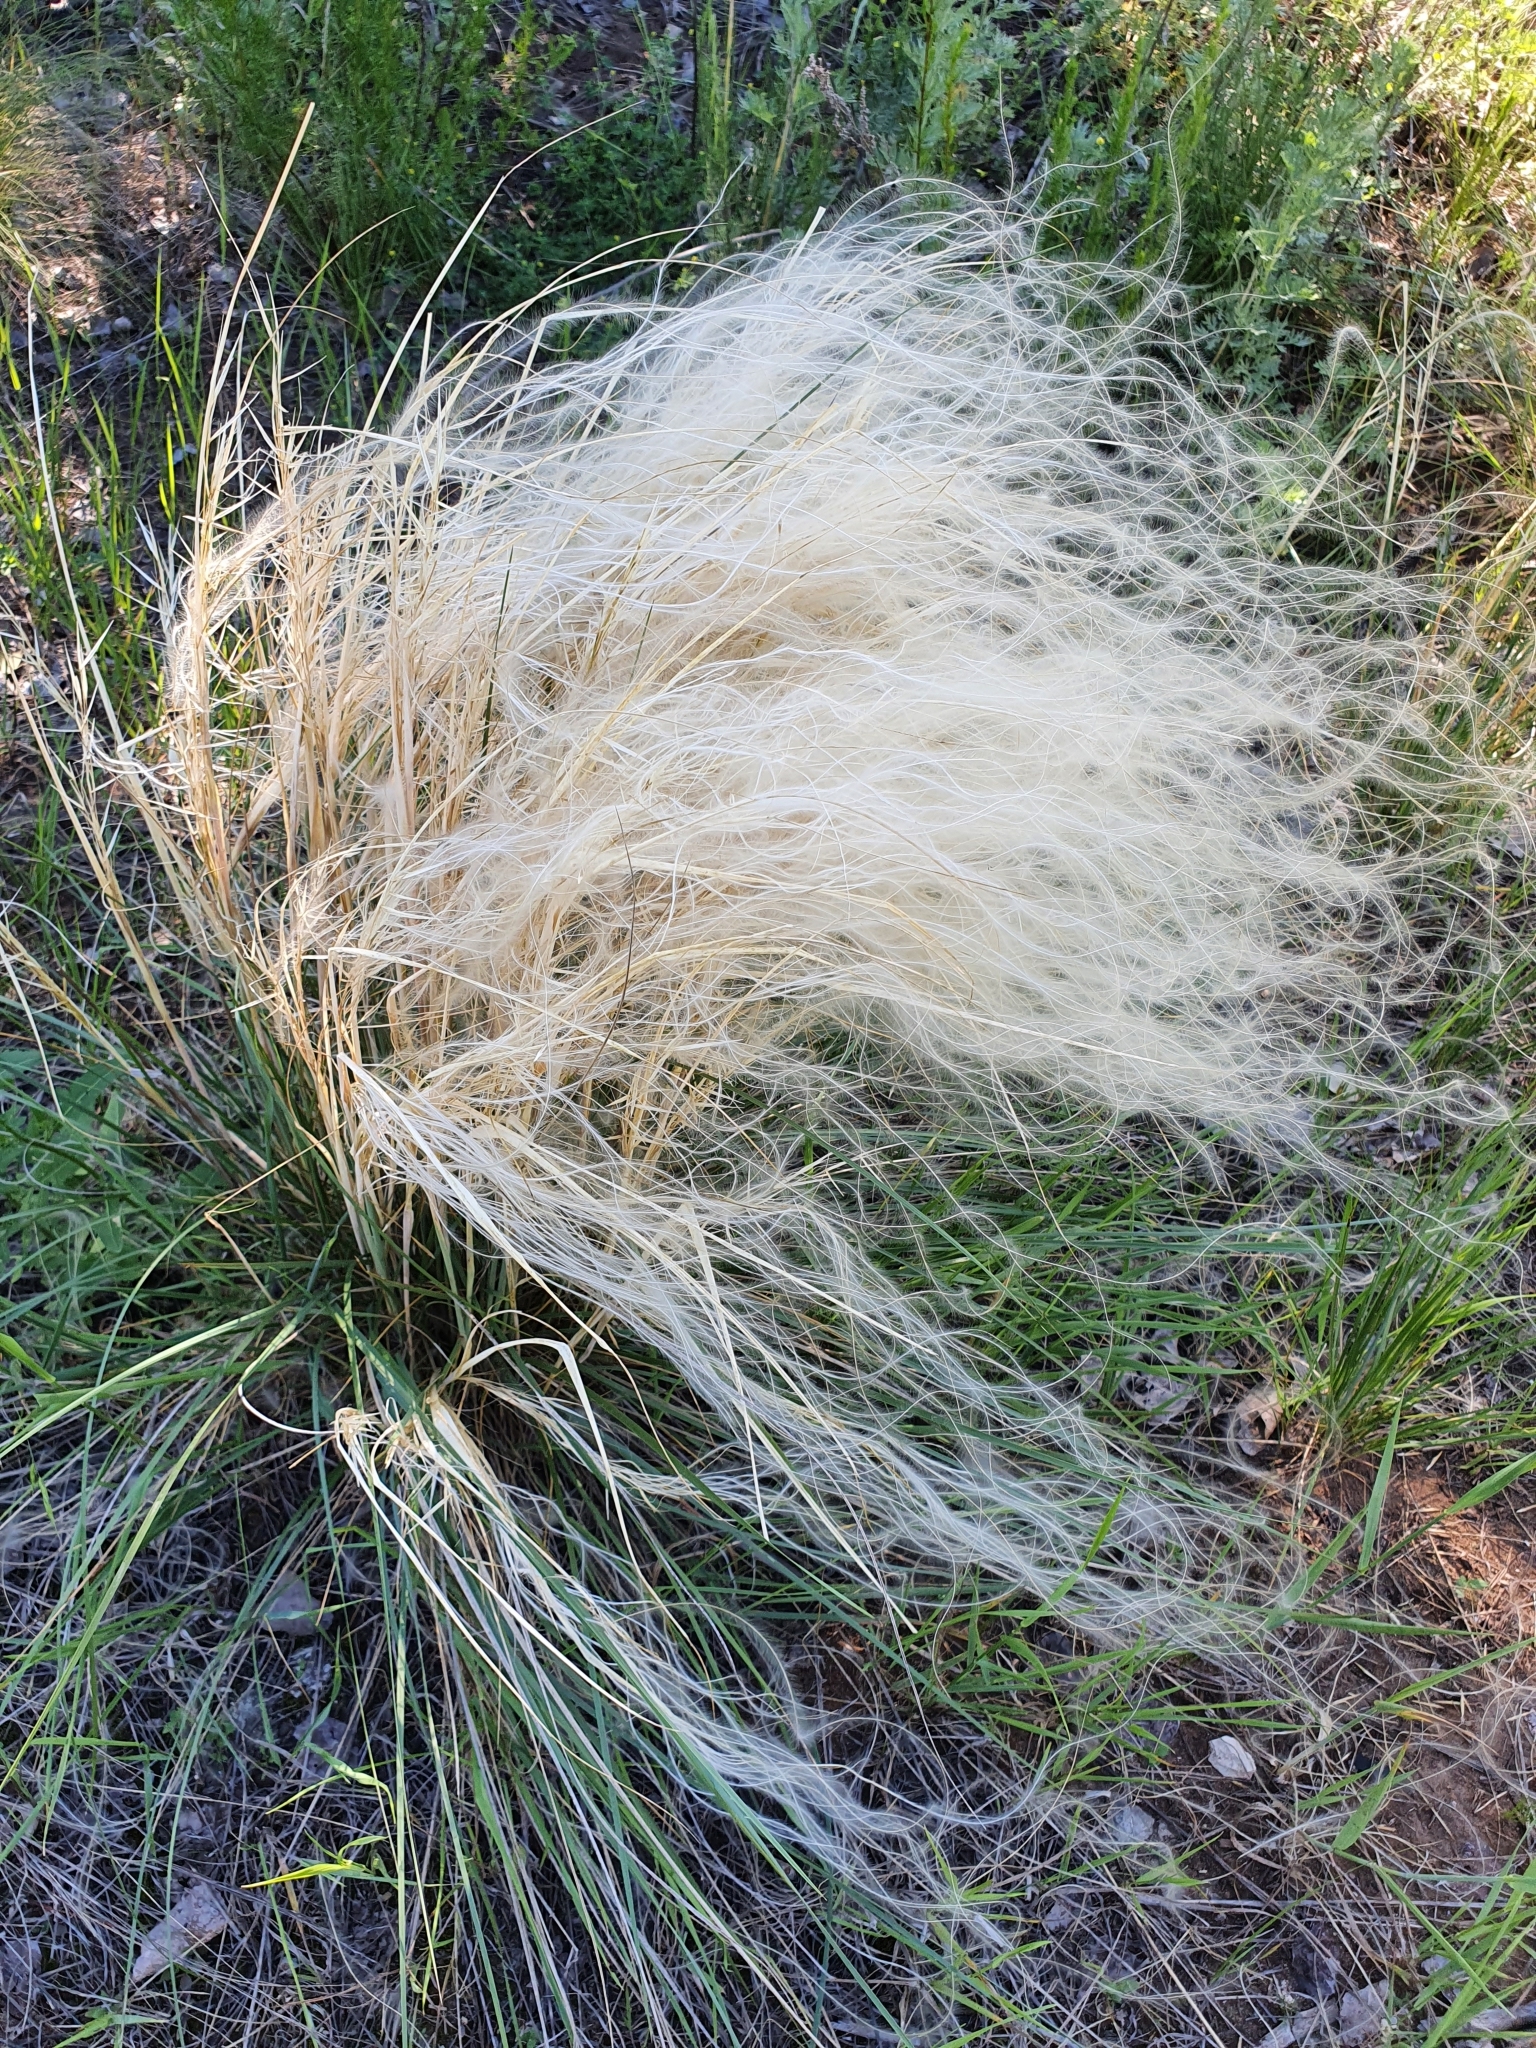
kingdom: Plantae
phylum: Tracheophyta
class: Liliopsida
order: Poales
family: Poaceae
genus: Stipa
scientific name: Stipa pennata
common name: European feather grass
